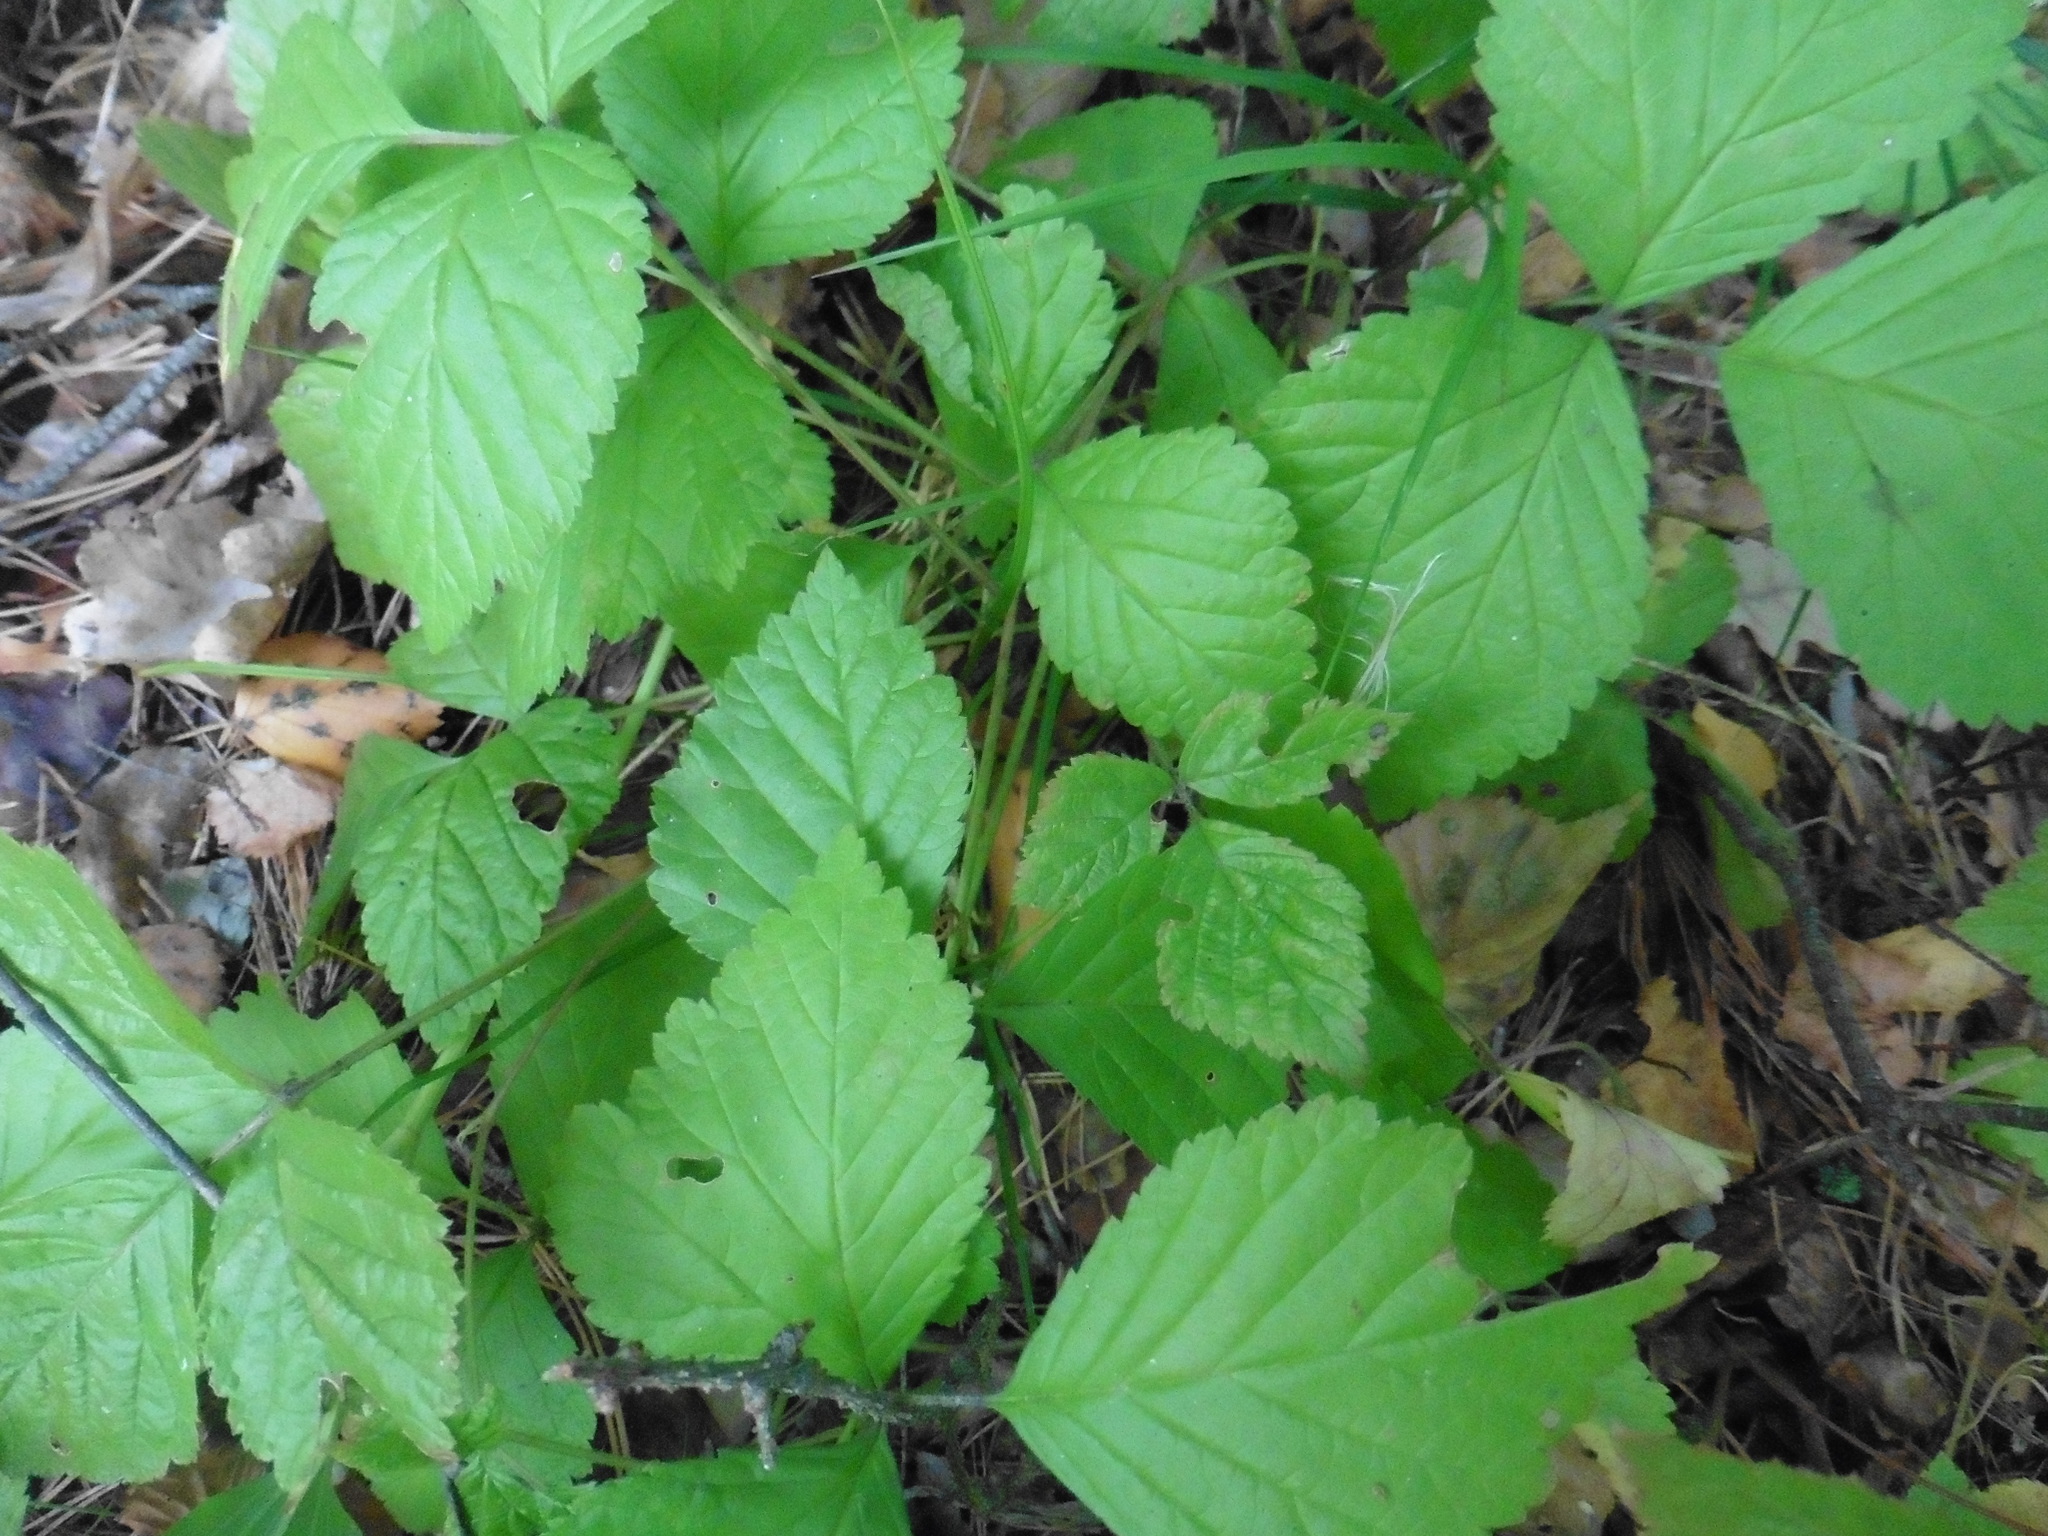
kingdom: Plantae
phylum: Tracheophyta
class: Magnoliopsida
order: Rosales
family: Rosaceae
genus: Rubus
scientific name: Rubus saxatilis
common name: Stone bramble
